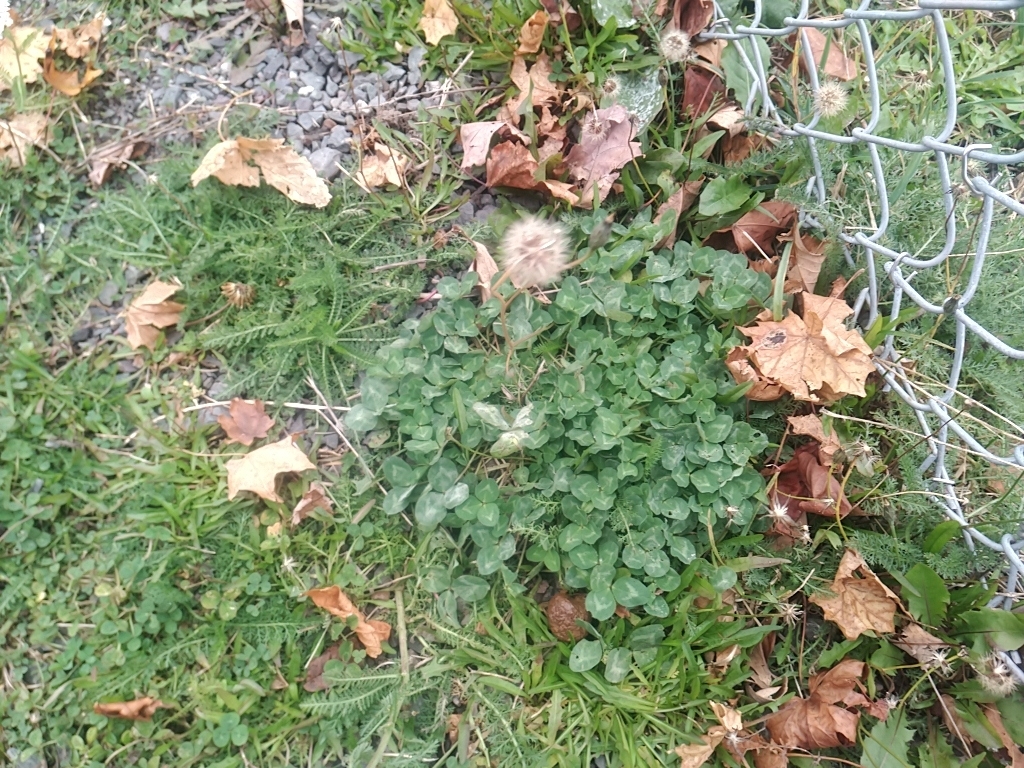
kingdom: Plantae
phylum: Tracheophyta
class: Magnoliopsida
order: Fabales
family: Fabaceae
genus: Trifolium
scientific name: Trifolium pratense
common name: Red clover
